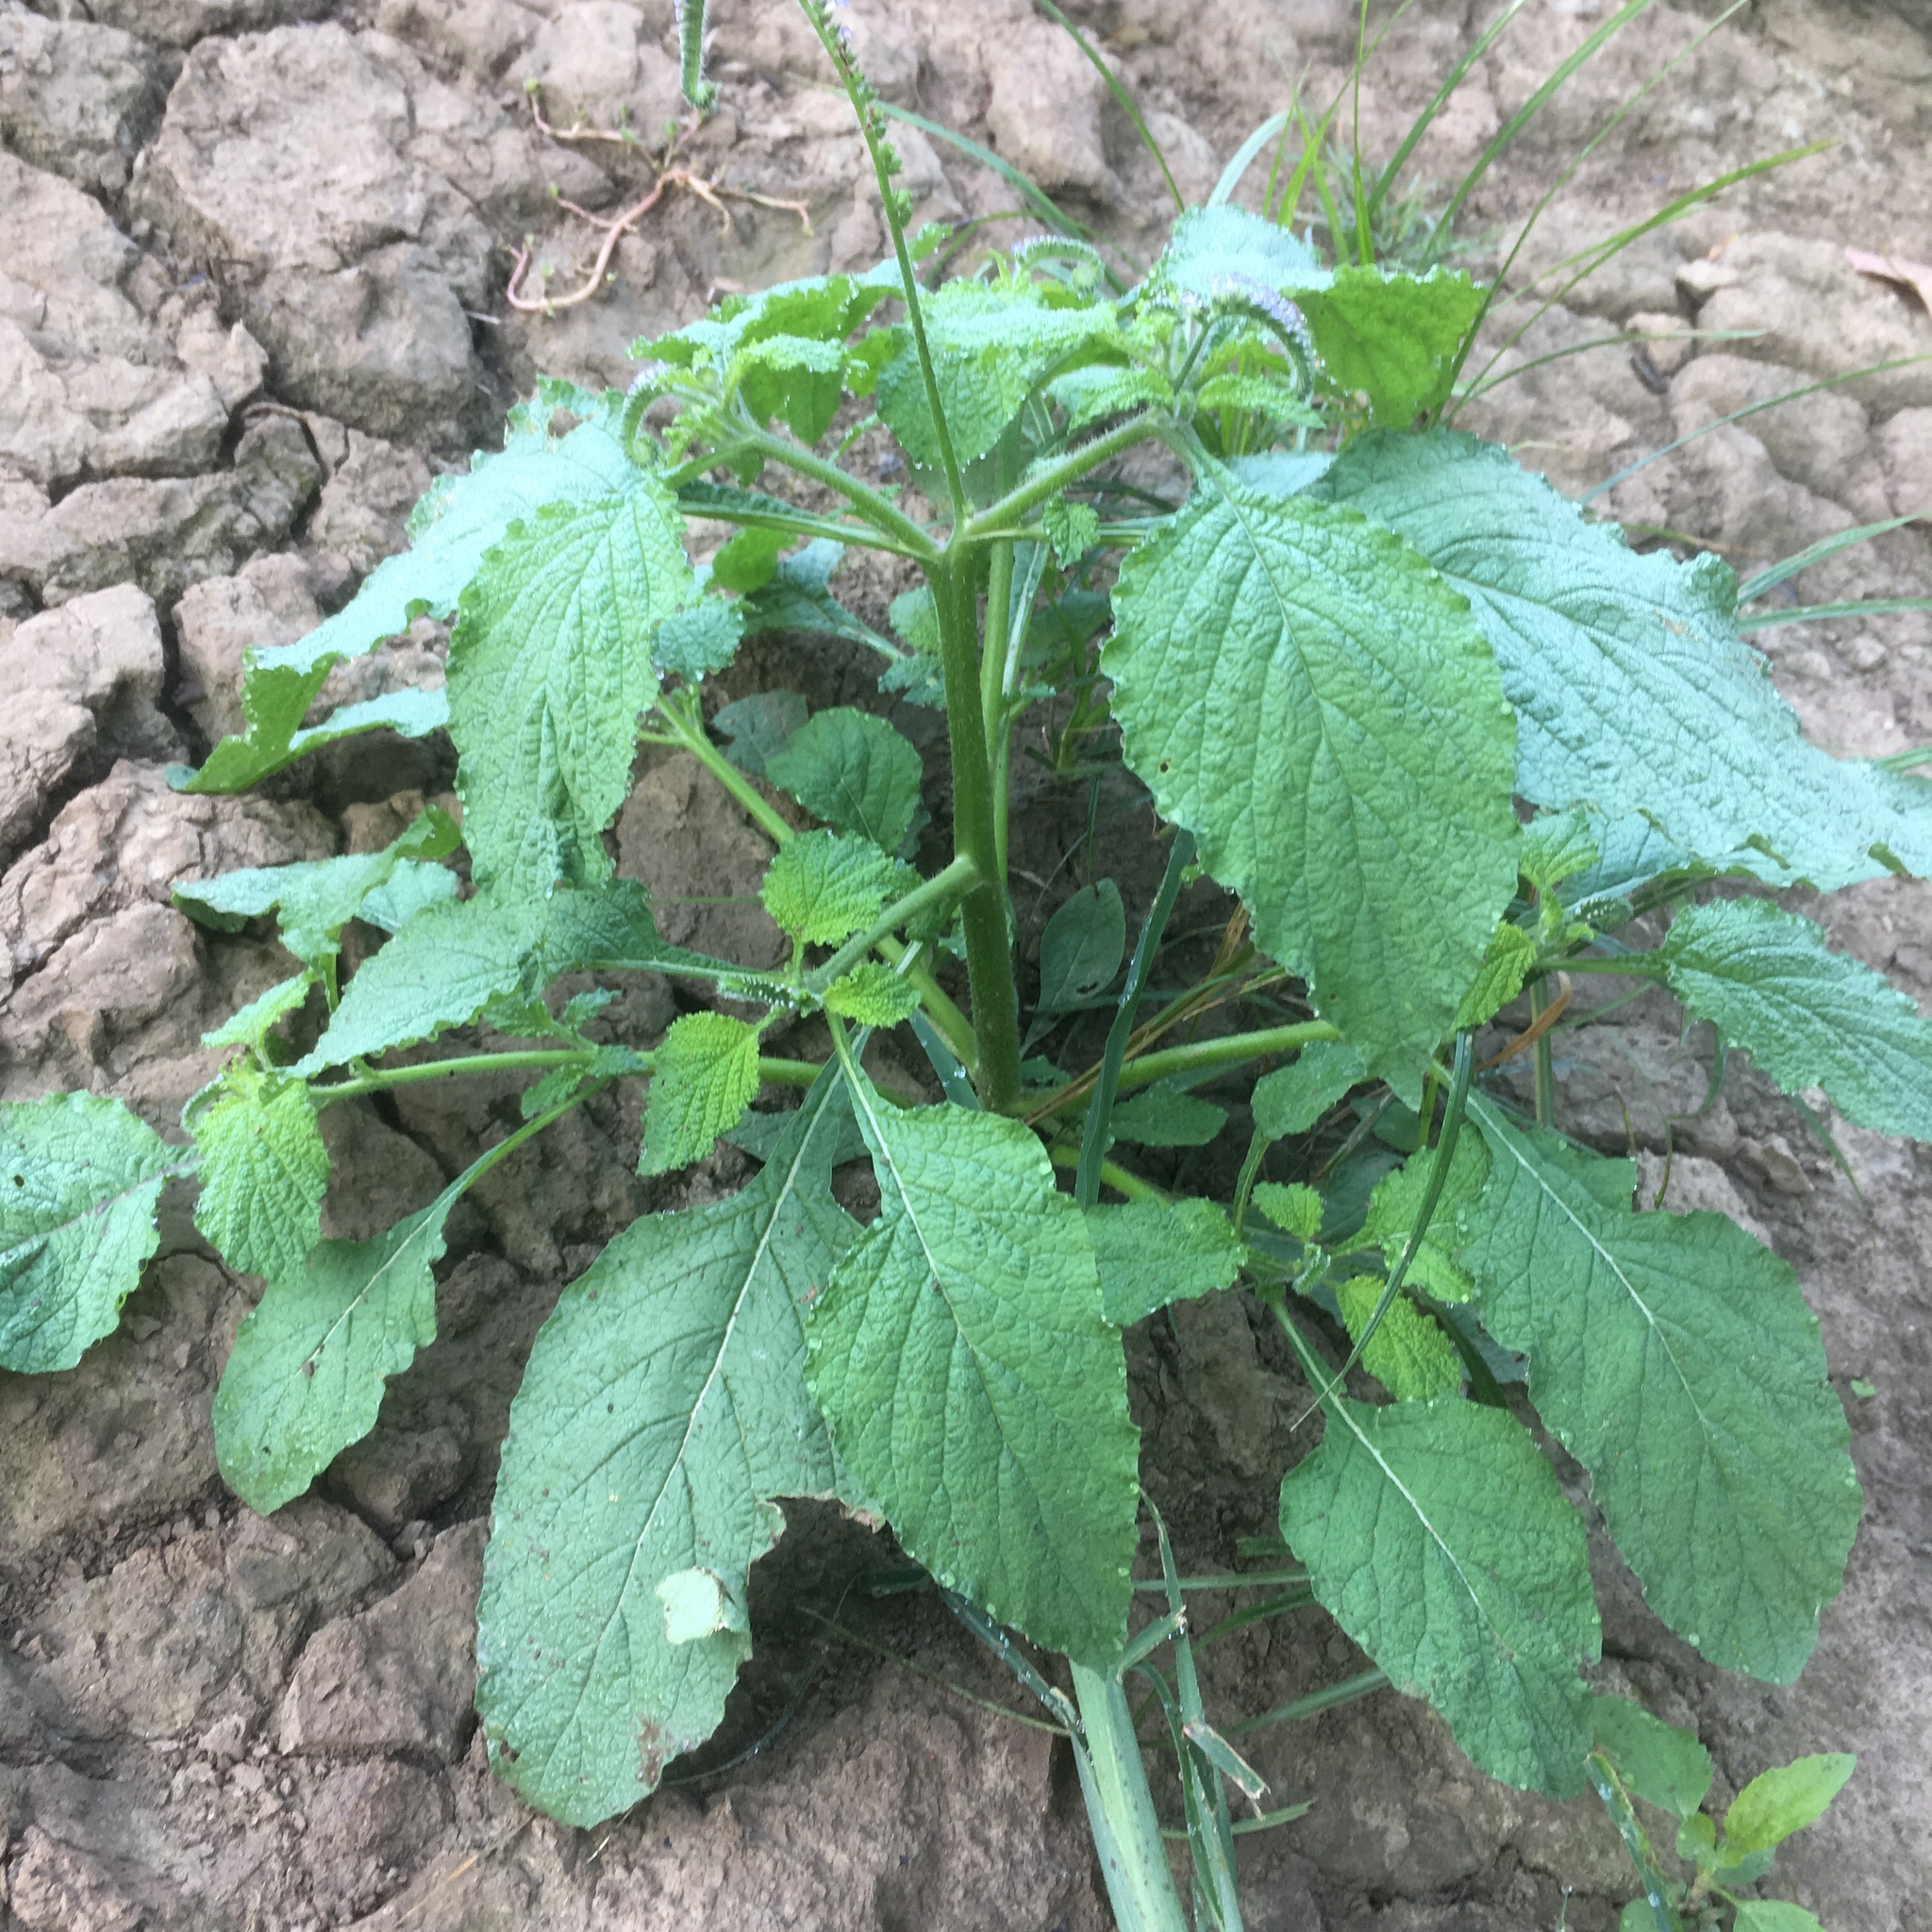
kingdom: Plantae
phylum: Tracheophyta
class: Magnoliopsida
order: Boraginales
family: Heliotropiaceae
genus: Heliotropium
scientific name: Heliotropium indicum
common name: Indian heliotrope
